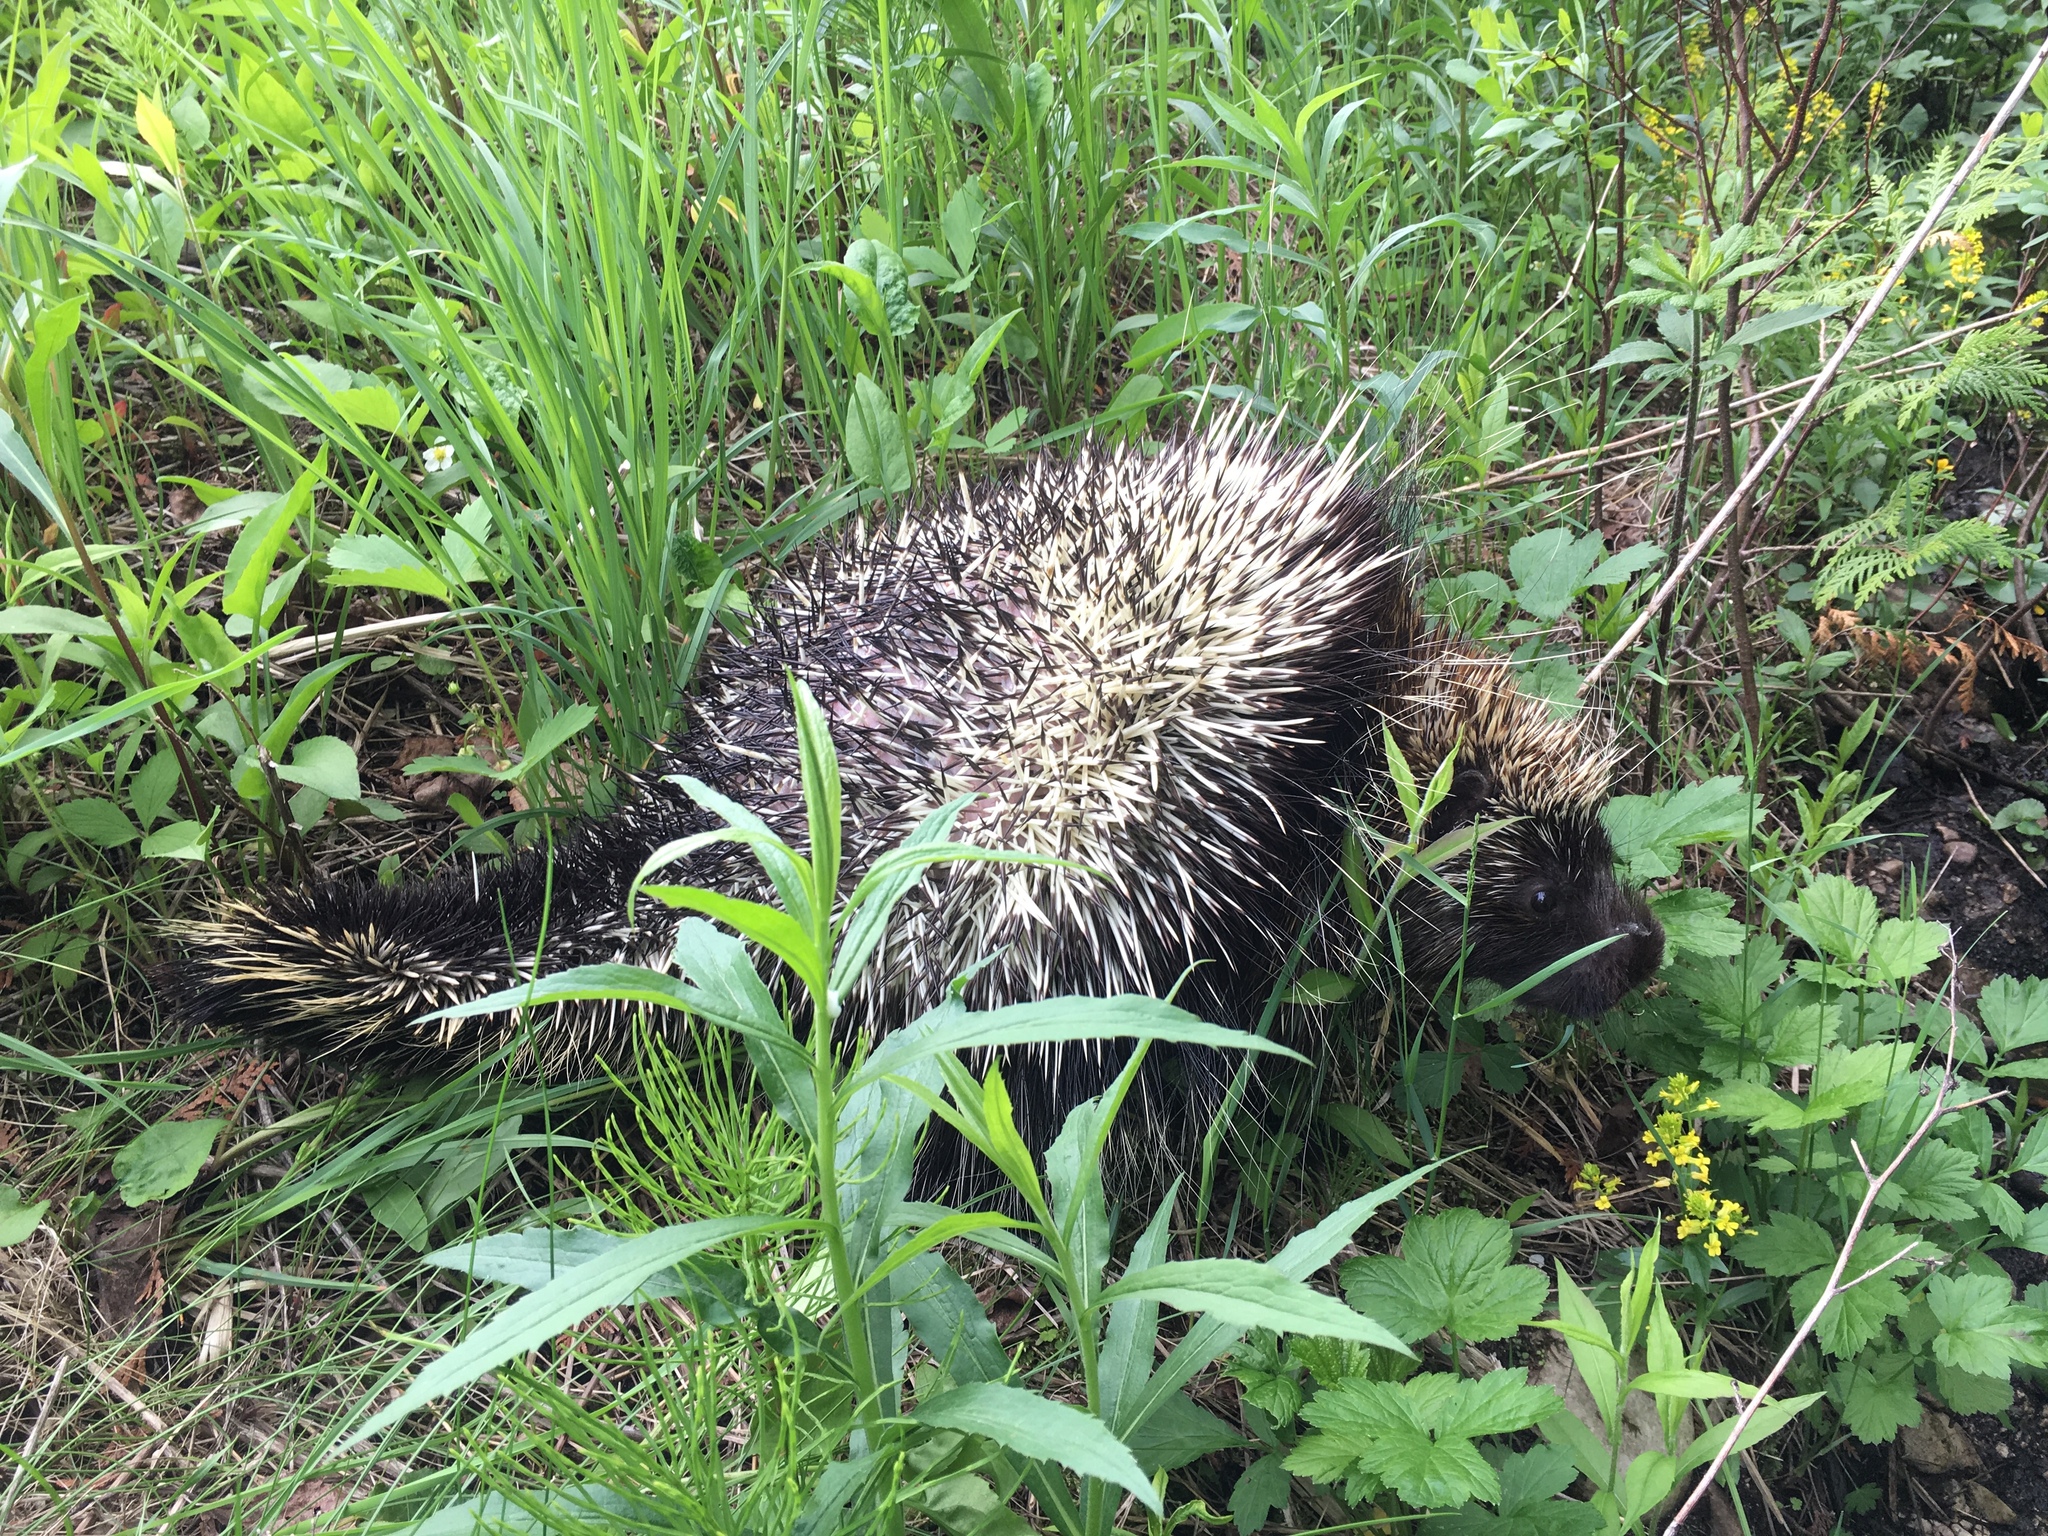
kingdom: Animalia
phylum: Chordata
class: Mammalia
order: Rodentia
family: Erethizontidae
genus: Erethizon
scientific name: Erethizon dorsatus
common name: North american porcupine
